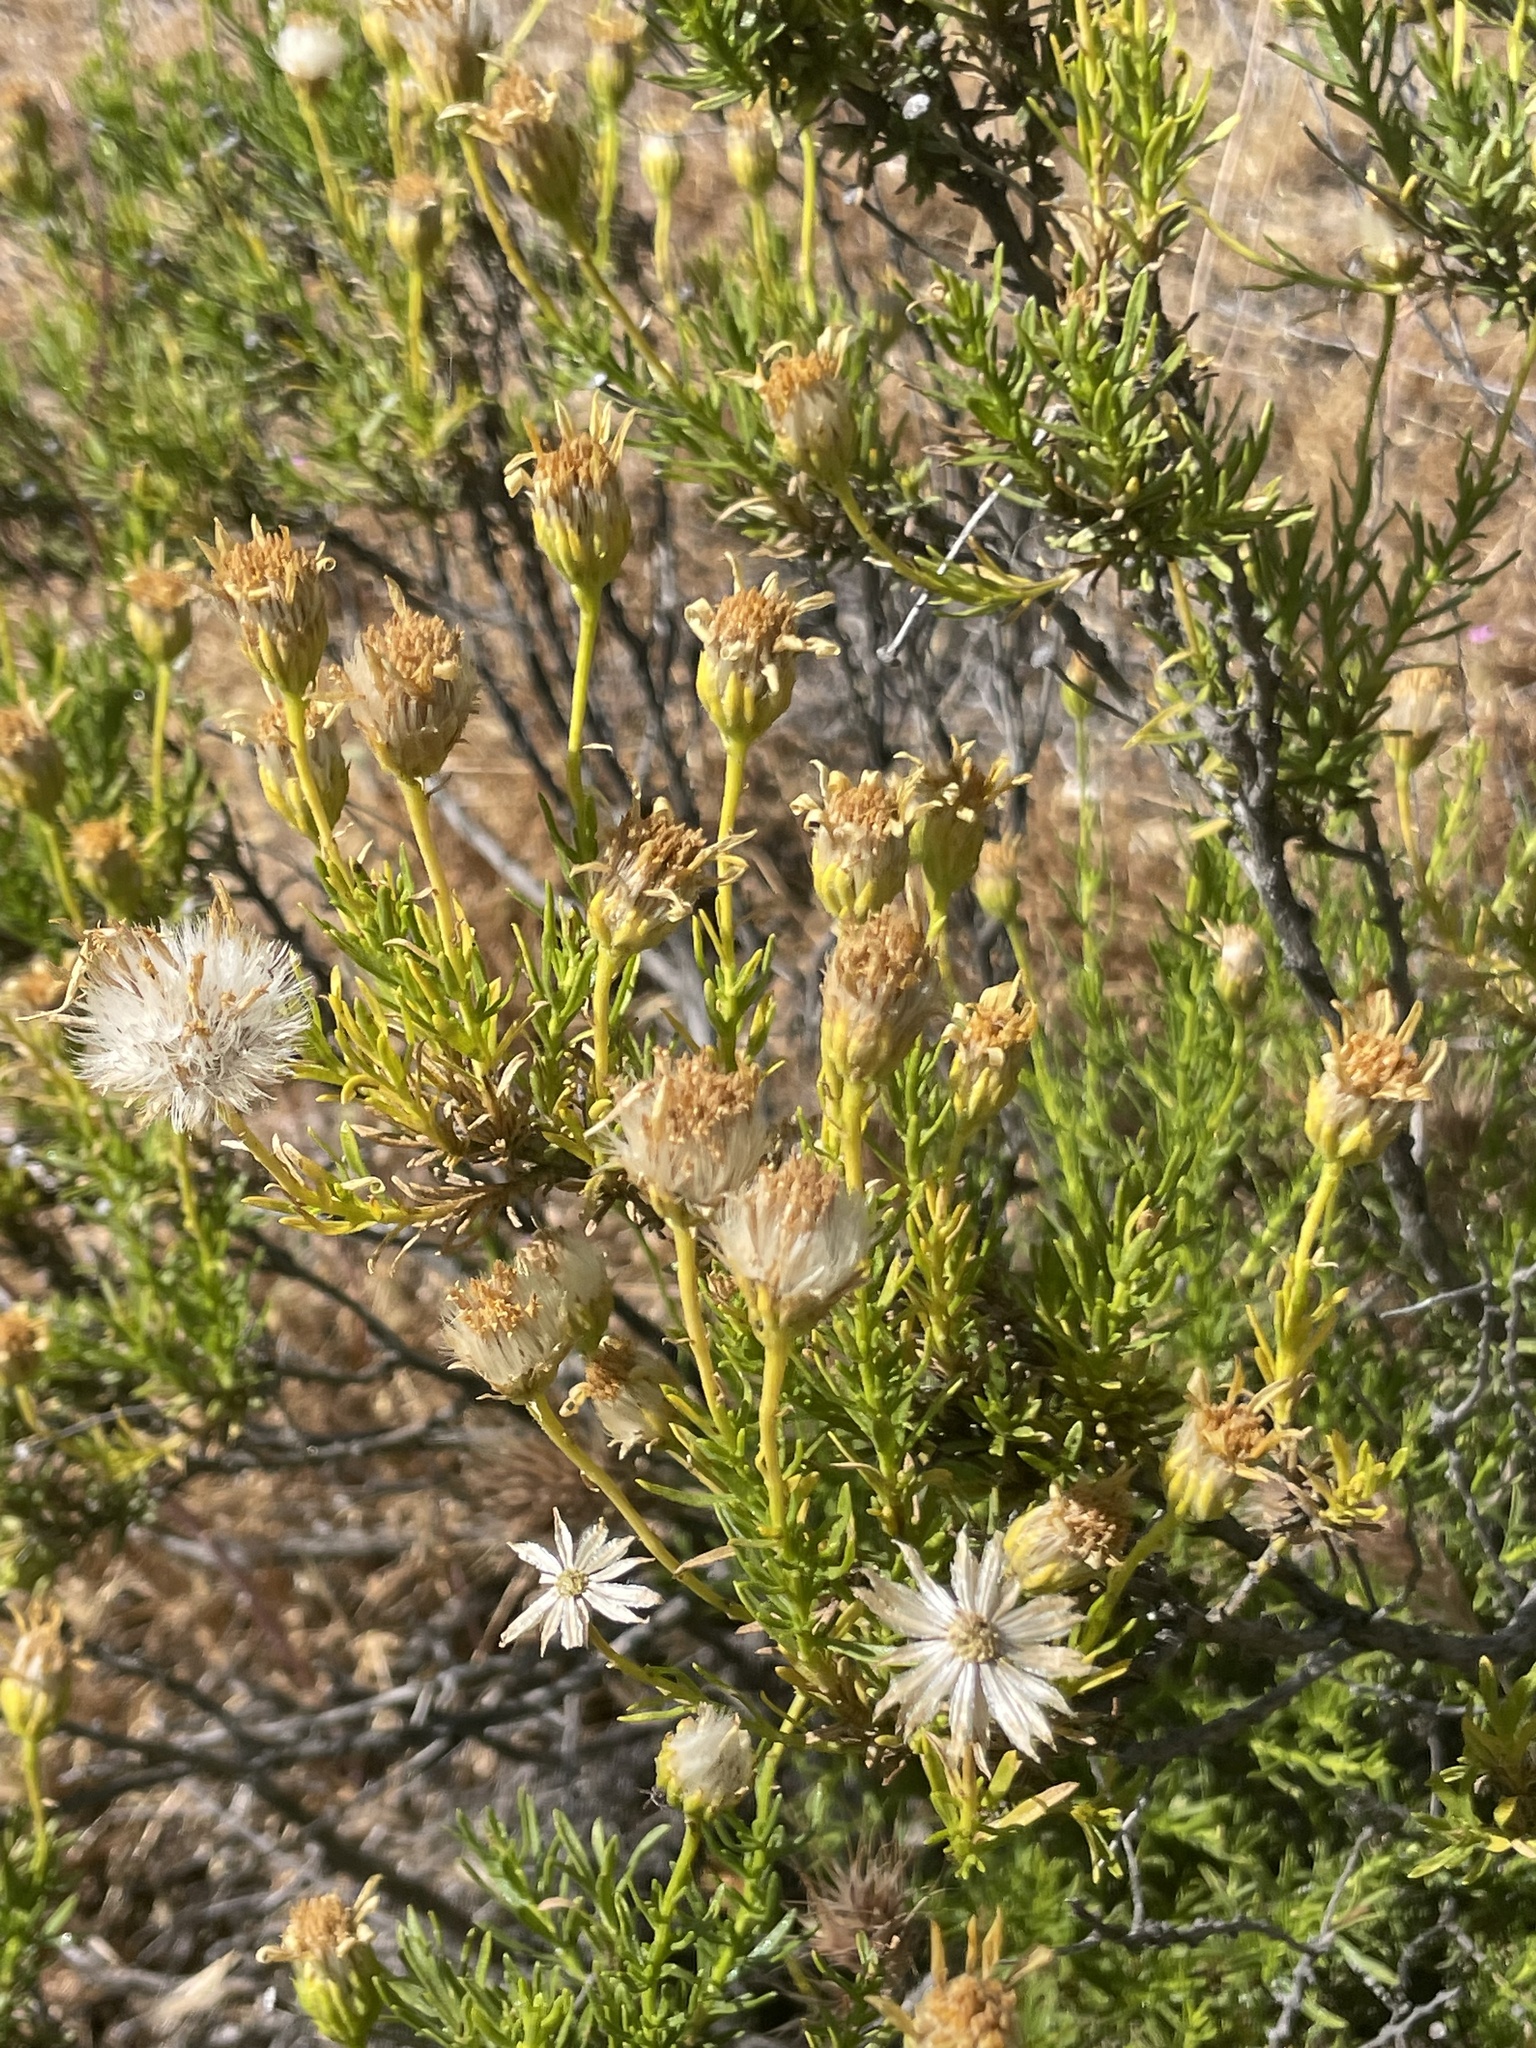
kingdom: Plantae
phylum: Tracheophyta
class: Magnoliopsida
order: Asterales
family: Asteraceae
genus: Ericameria
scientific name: Ericameria linearifolia
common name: Interior goldenbush
